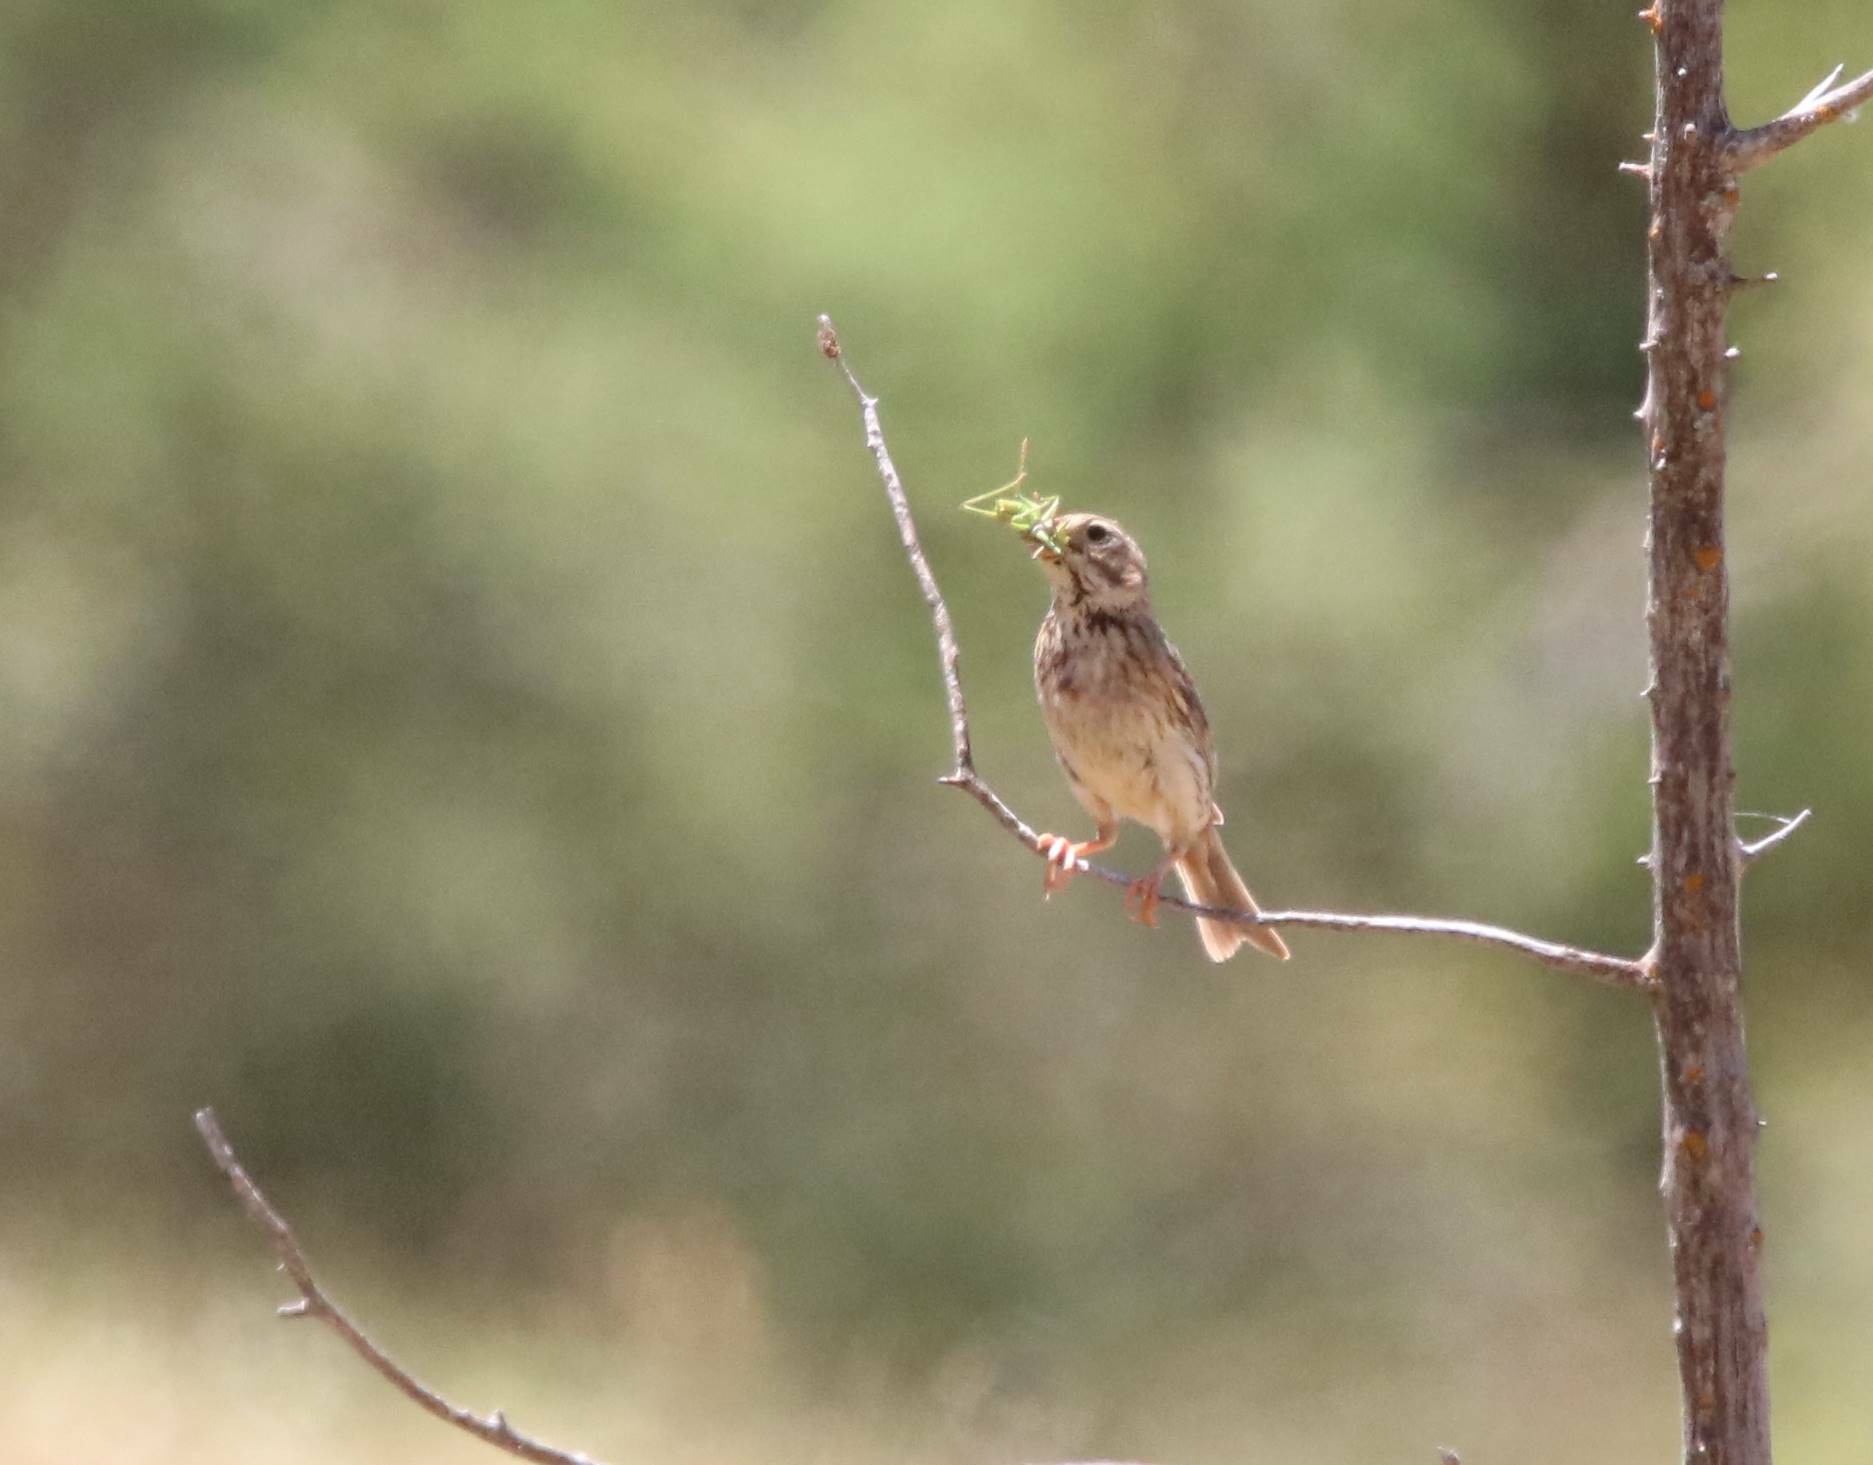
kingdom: Animalia
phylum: Chordata
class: Aves
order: Passeriformes
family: Emberizidae
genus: Emberiza
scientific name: Emberiza calandra
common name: Corn bunting
